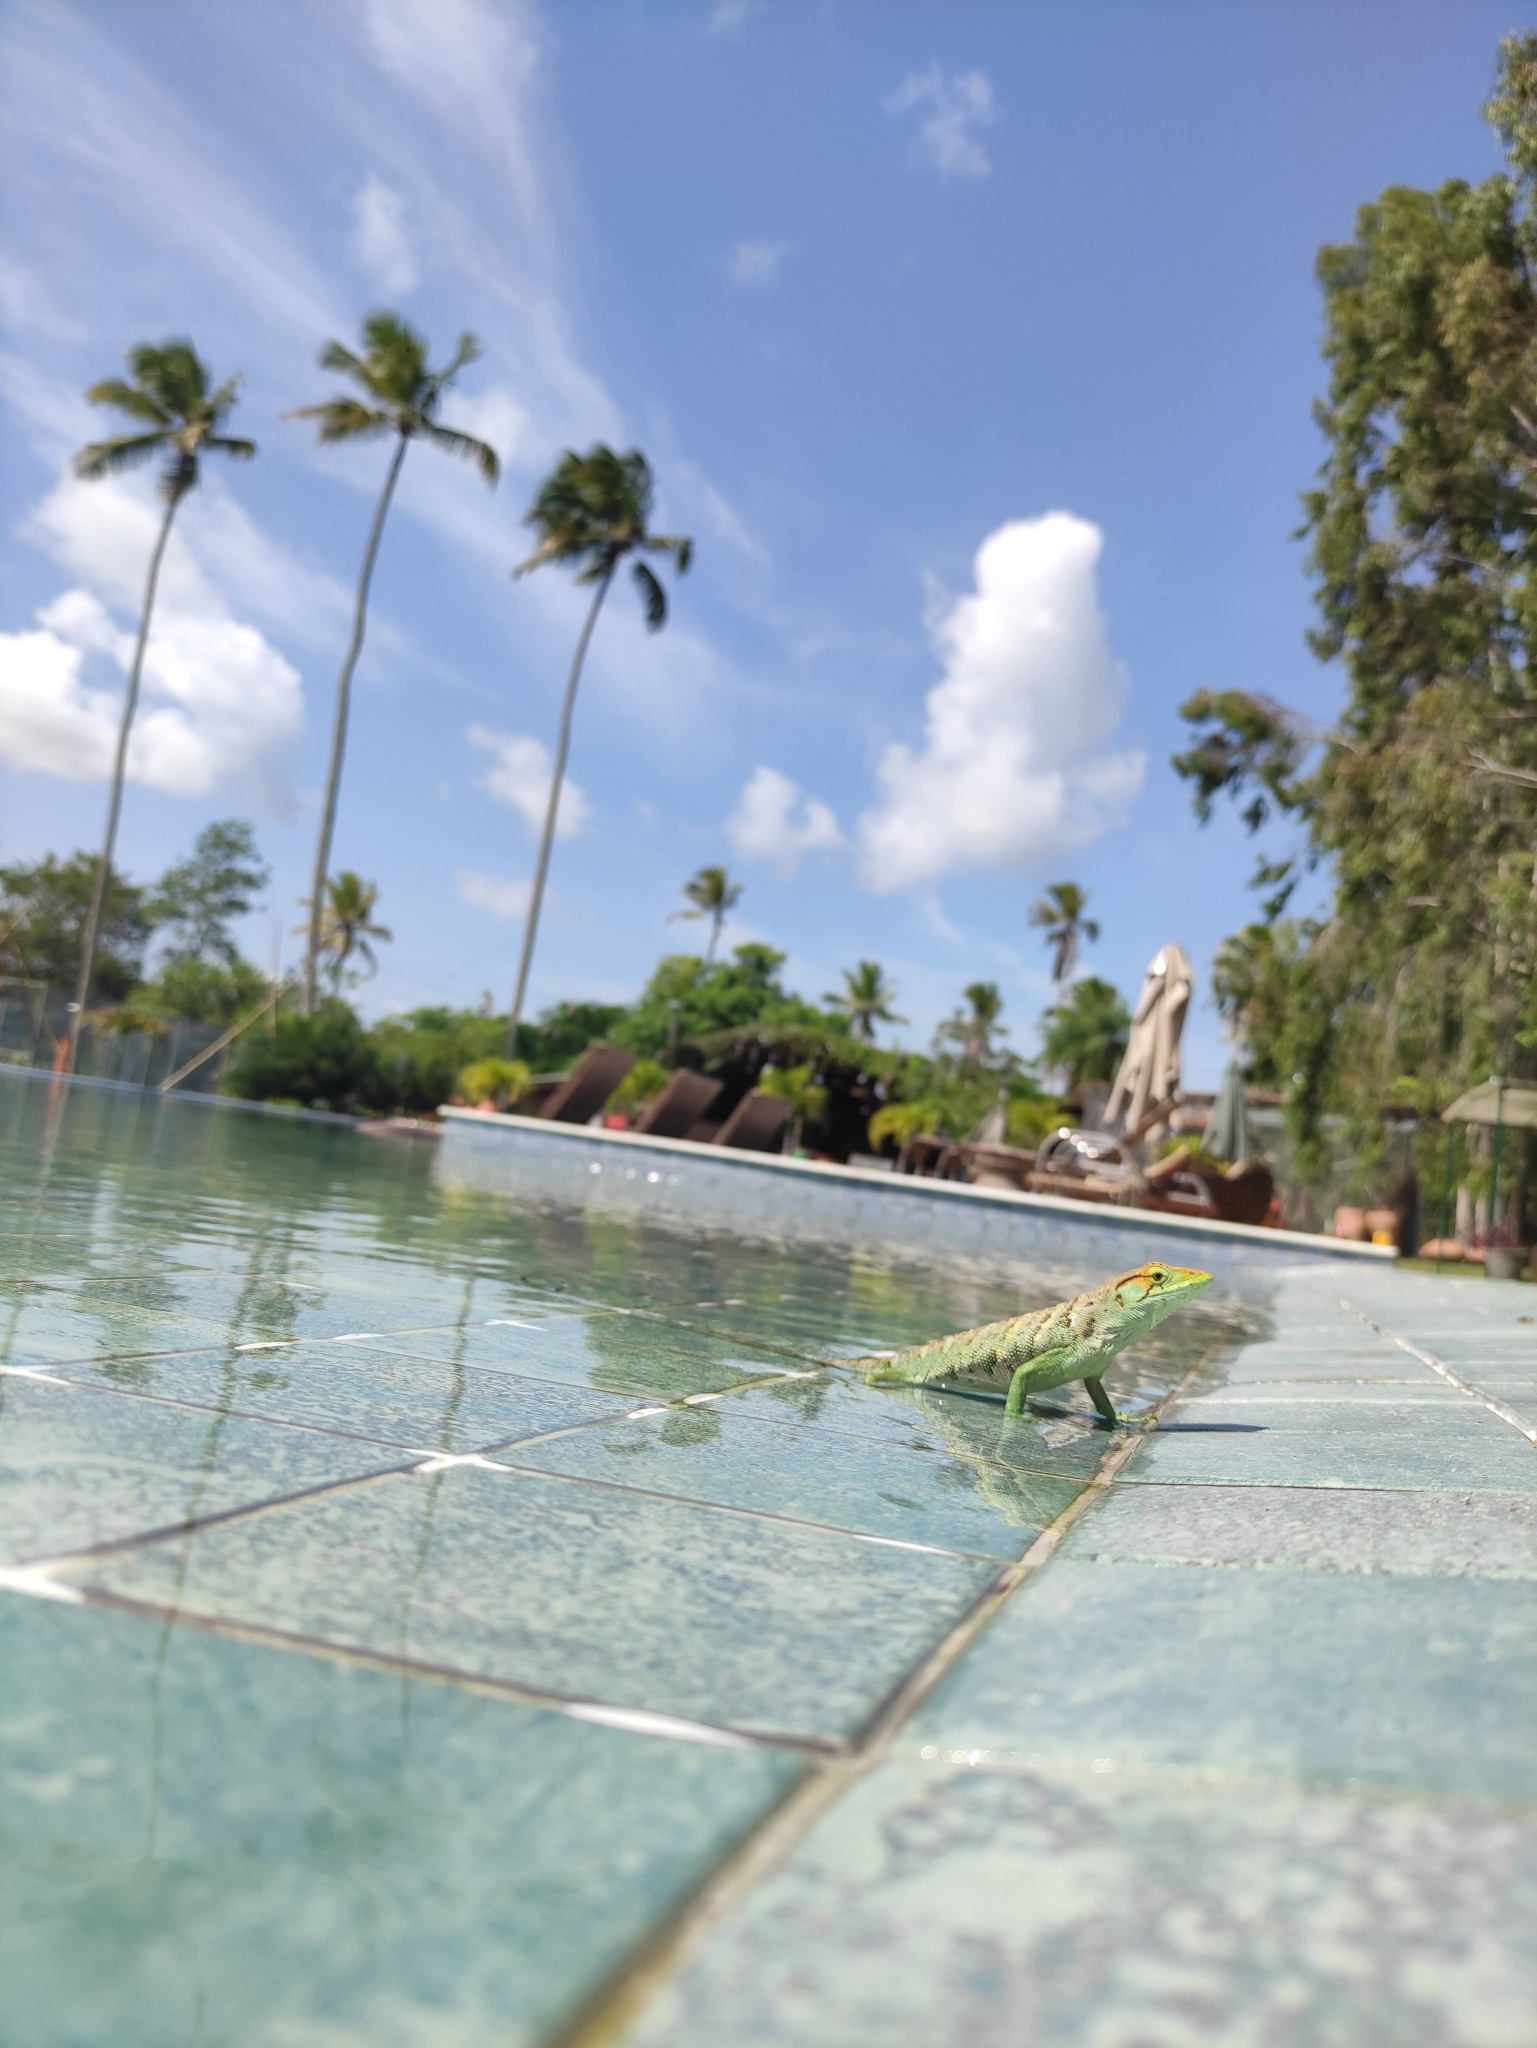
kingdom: Animalia
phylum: Chordata
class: Squamata
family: Polychrotidae
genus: Polychrus
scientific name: Polychrus marmoratus
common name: Many-colored bush anole
